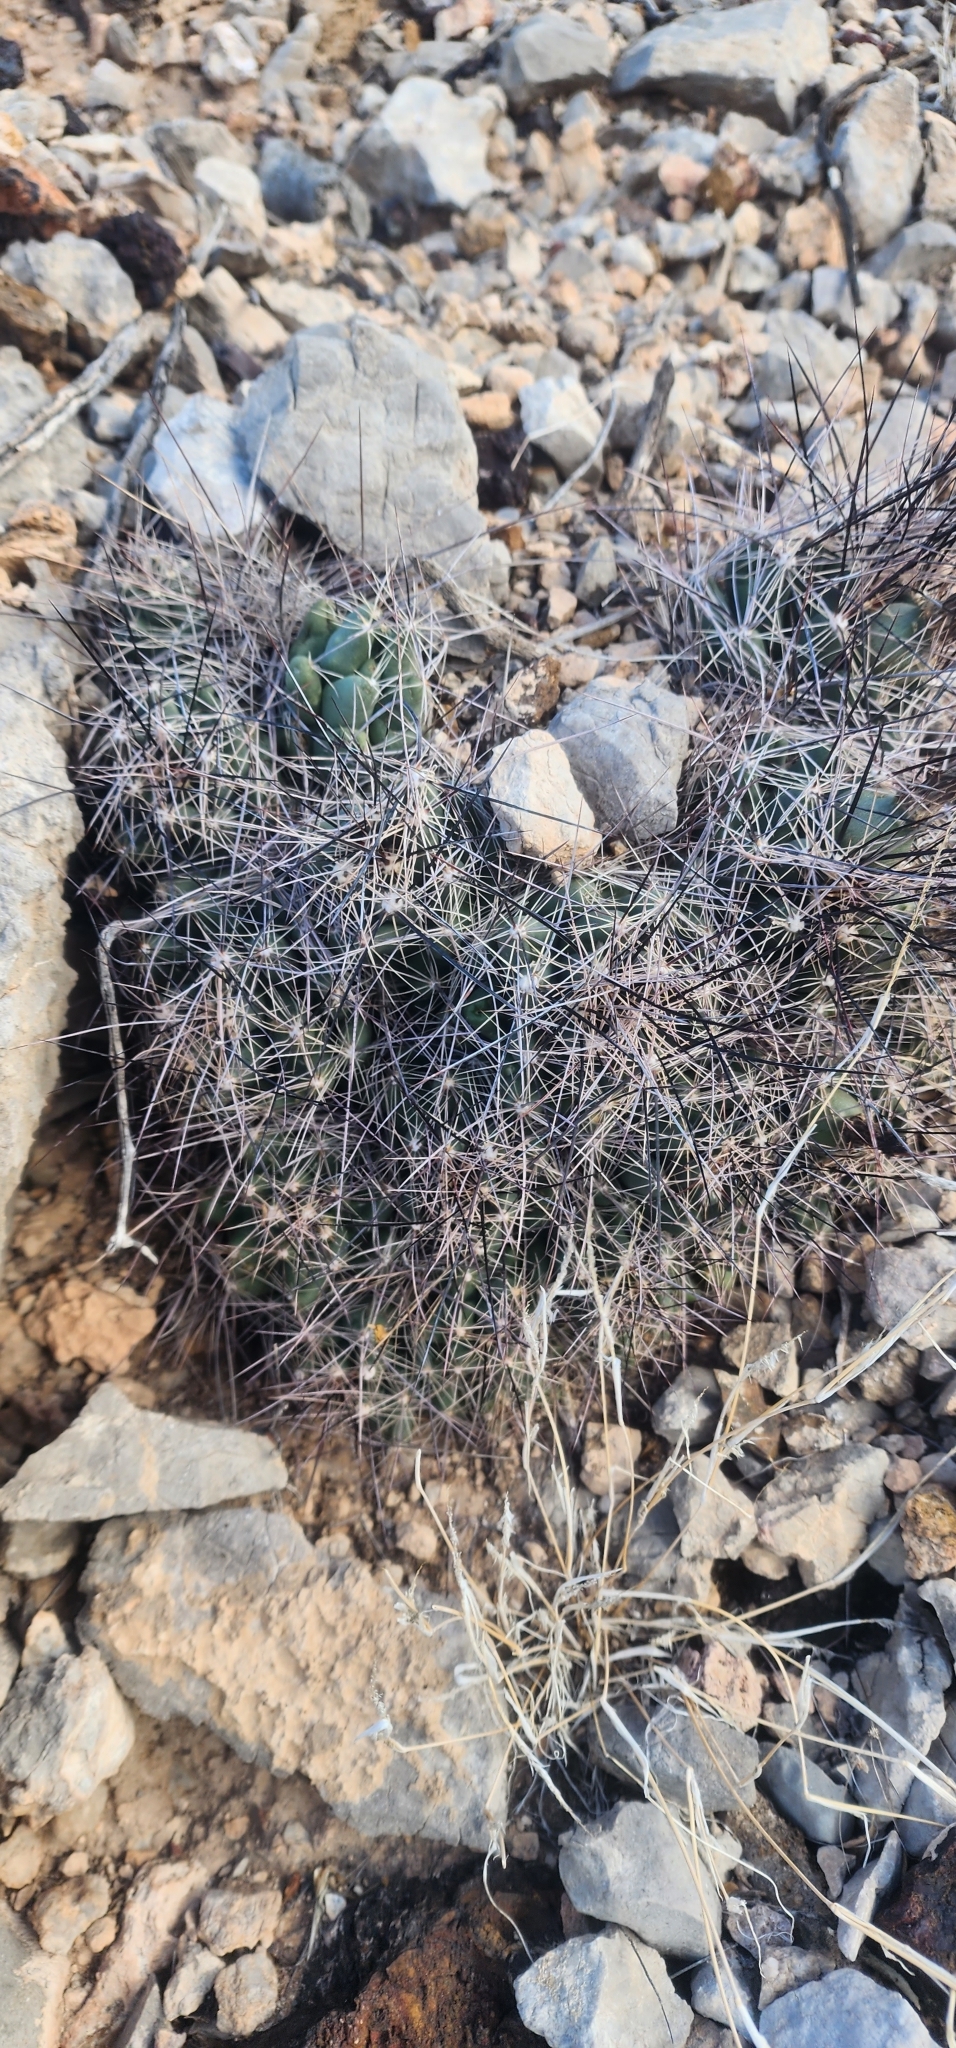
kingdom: Plantae
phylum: Tracheophyta
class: Magnoliopsida
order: Caryophyllales
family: Cactaceae
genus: Coryphantha
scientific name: Coryphantha macromeris
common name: Nipple beehive cactus
